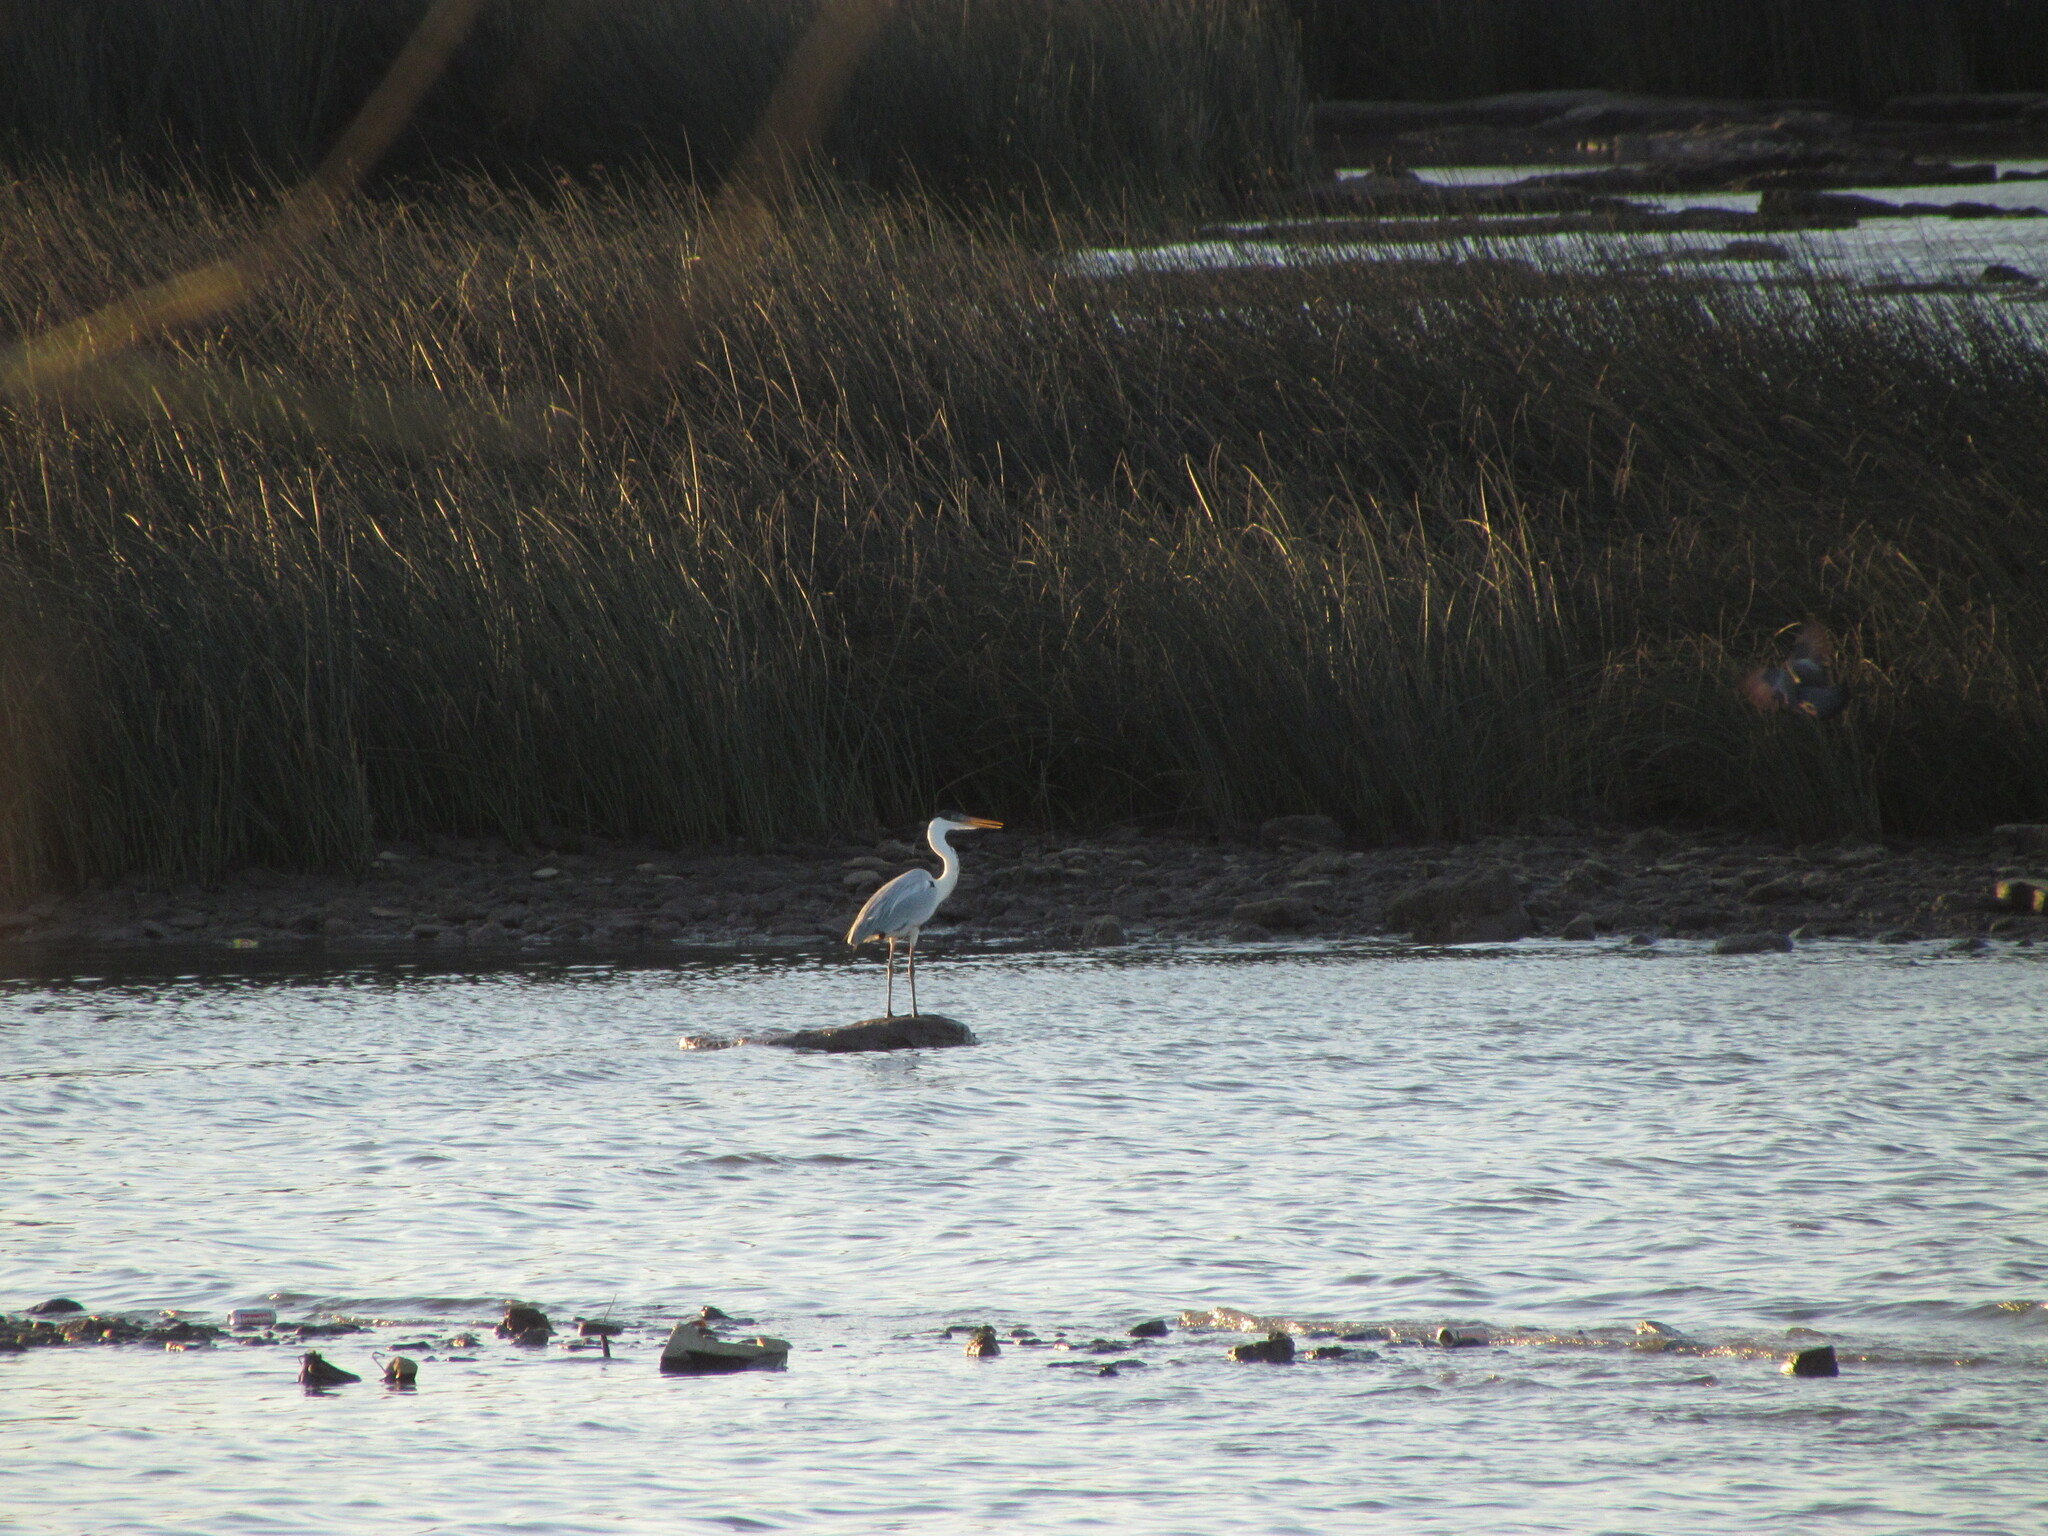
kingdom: Animalia
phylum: Chordata
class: Aves
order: Pelecaniformes
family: Ardeidae
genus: Ardea
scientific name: Ardea cocoi
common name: Cocoi heron
